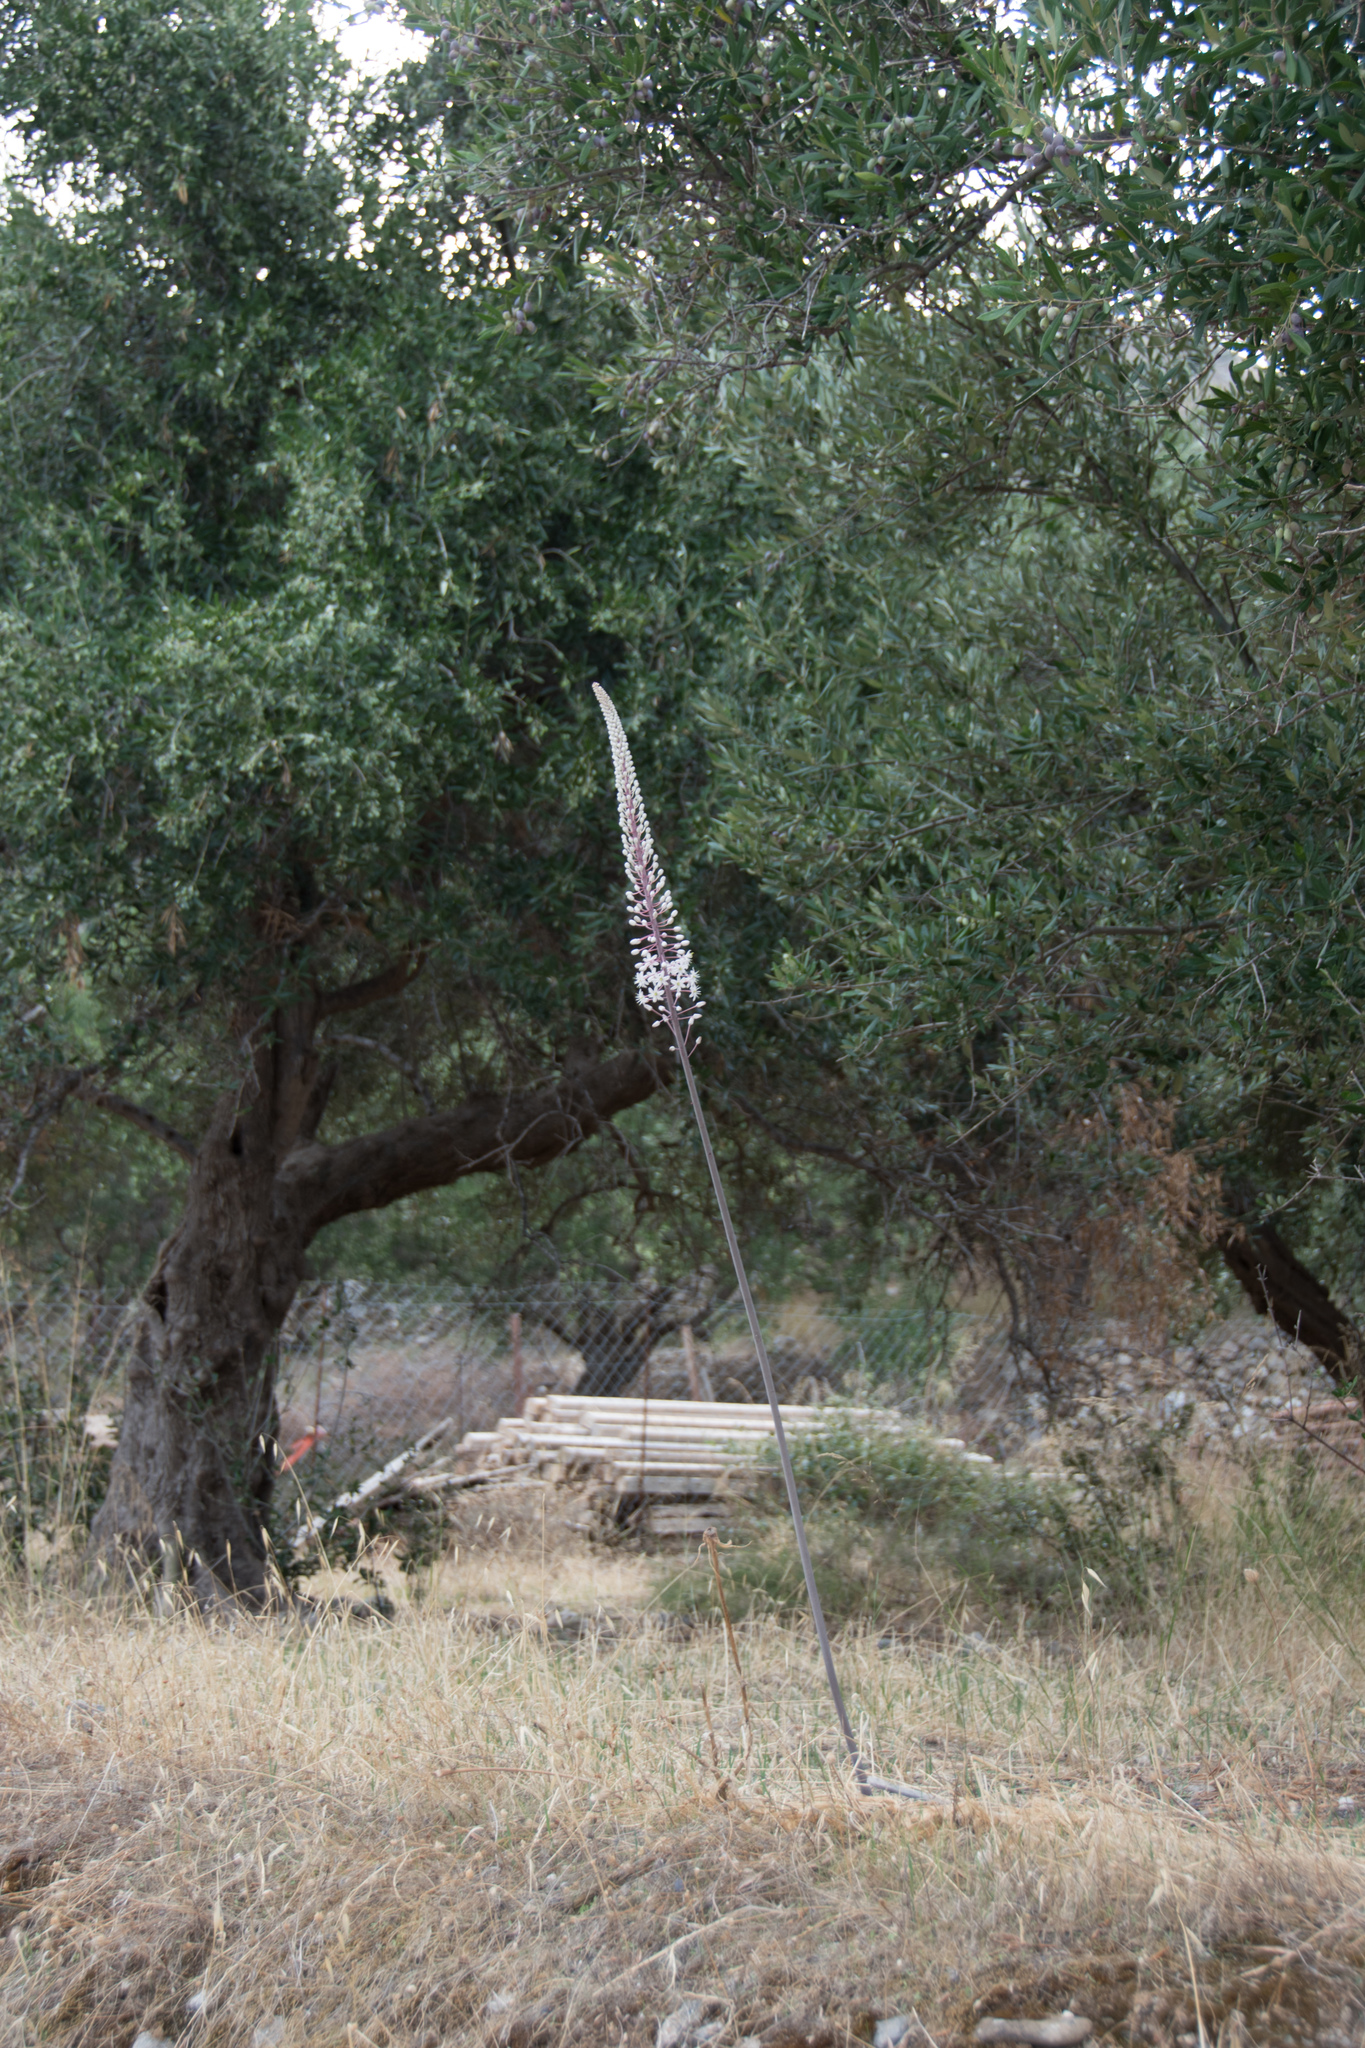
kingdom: Plantae
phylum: Tracheophyta
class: Liliopsida
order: Asparagales
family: Asparagaceae
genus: Drimia
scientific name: Drimia numidica
